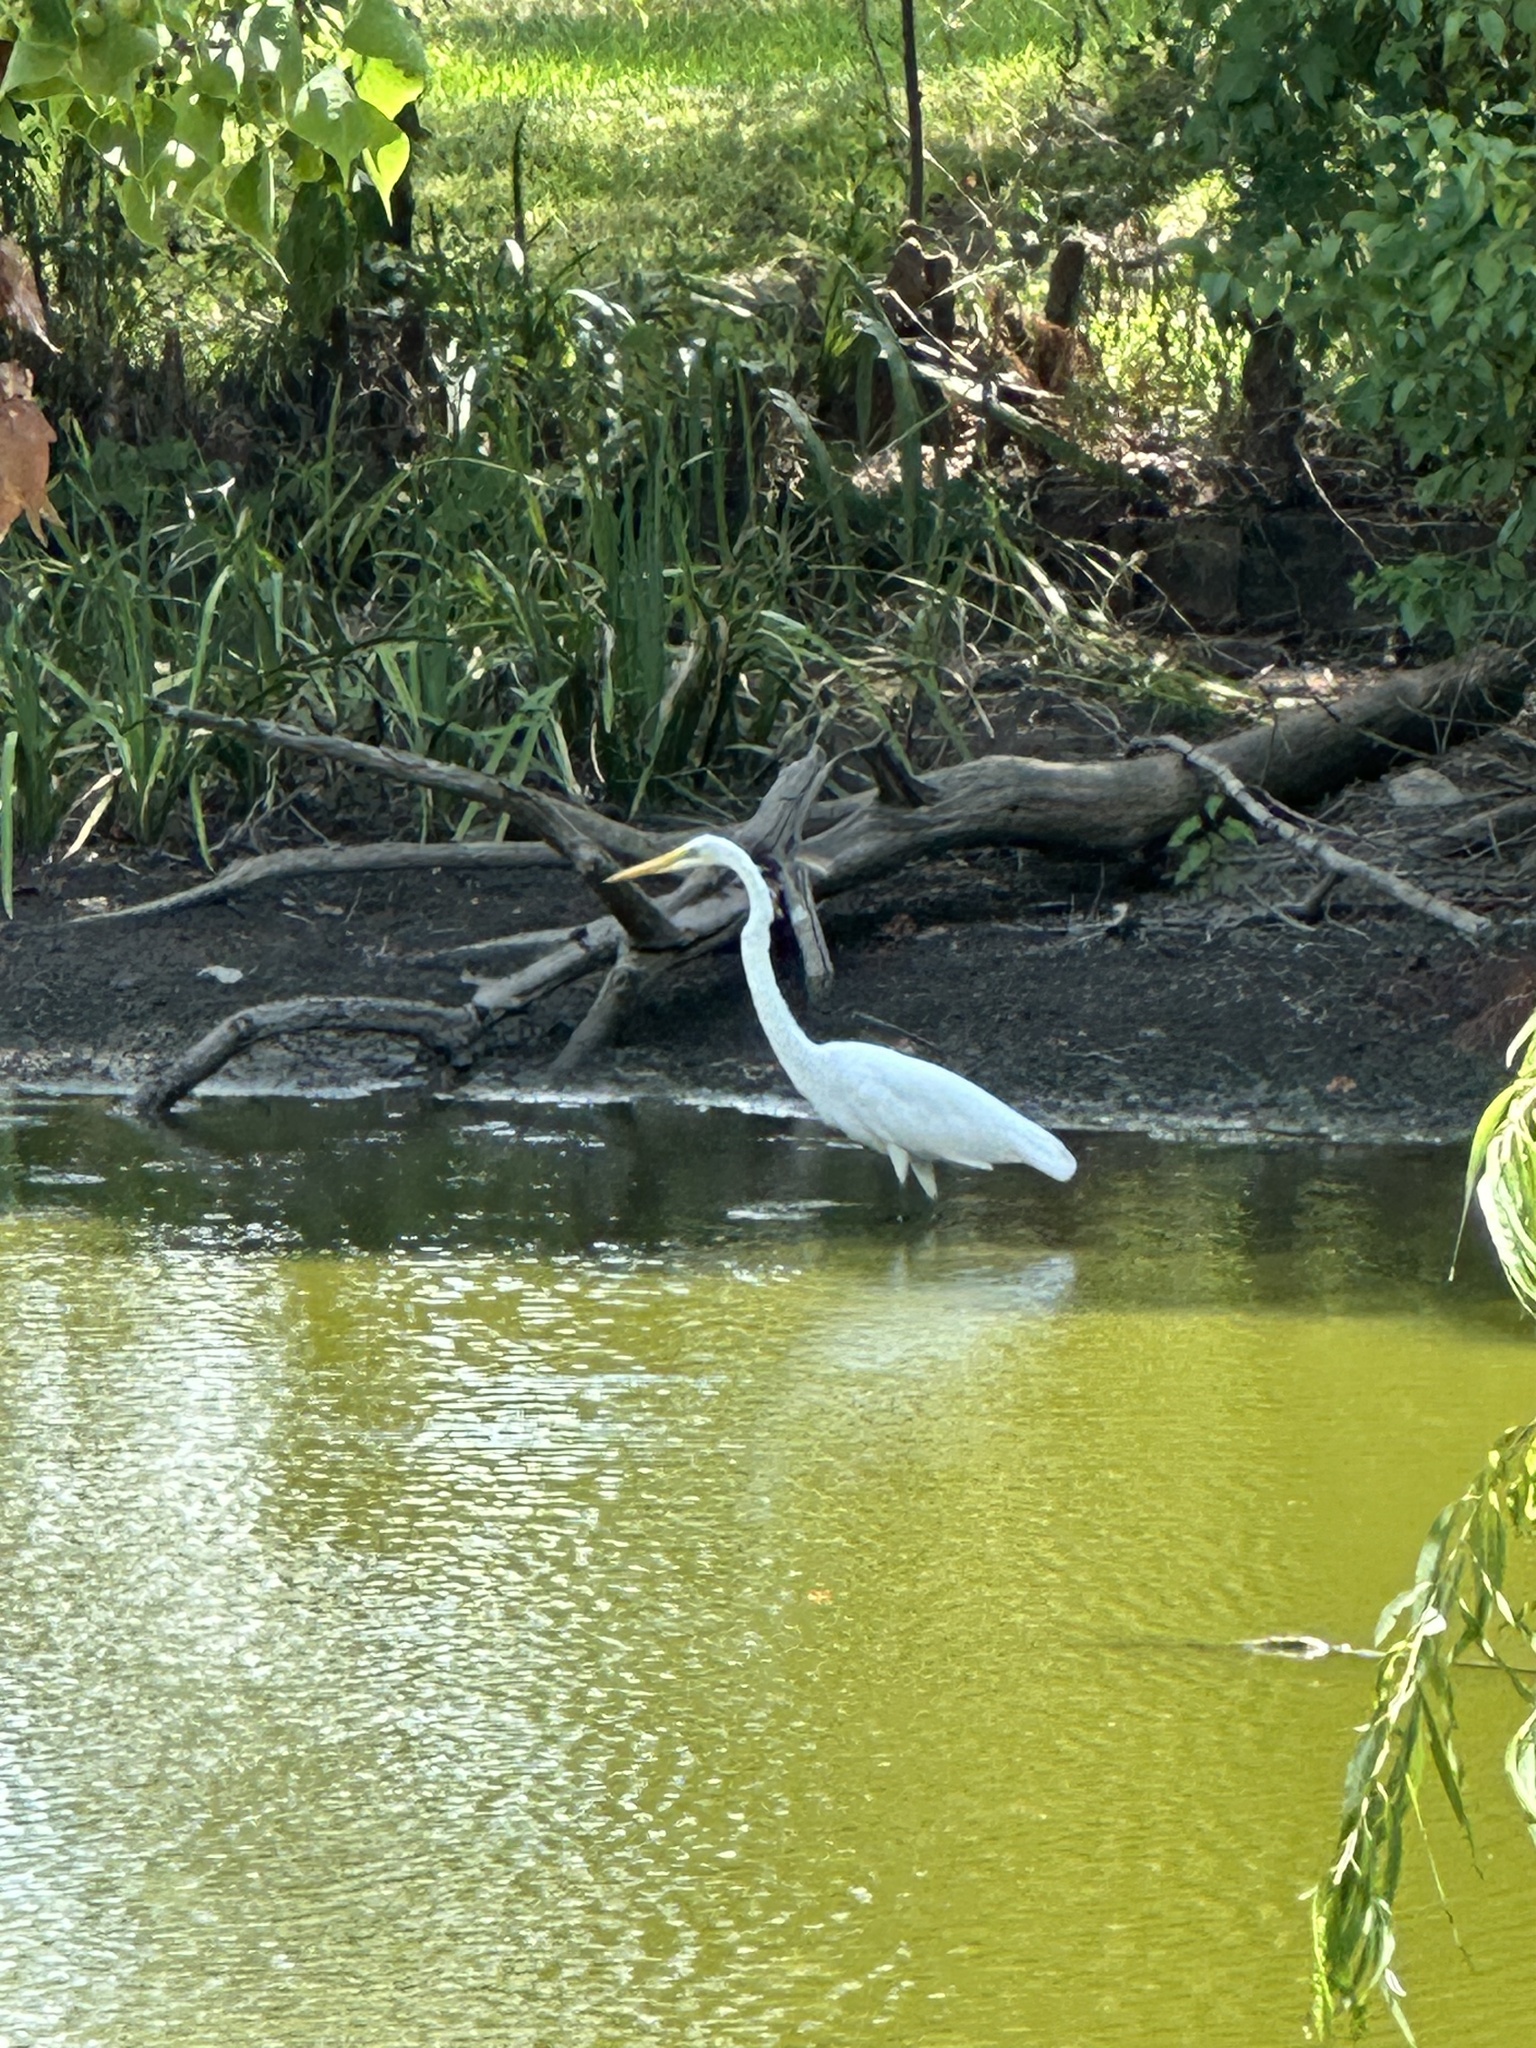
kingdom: Animalia
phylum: Chordata
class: Aves
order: Pelecaniformes
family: Ardeidae
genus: Ardea
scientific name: Ardea alba
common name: Great egret
